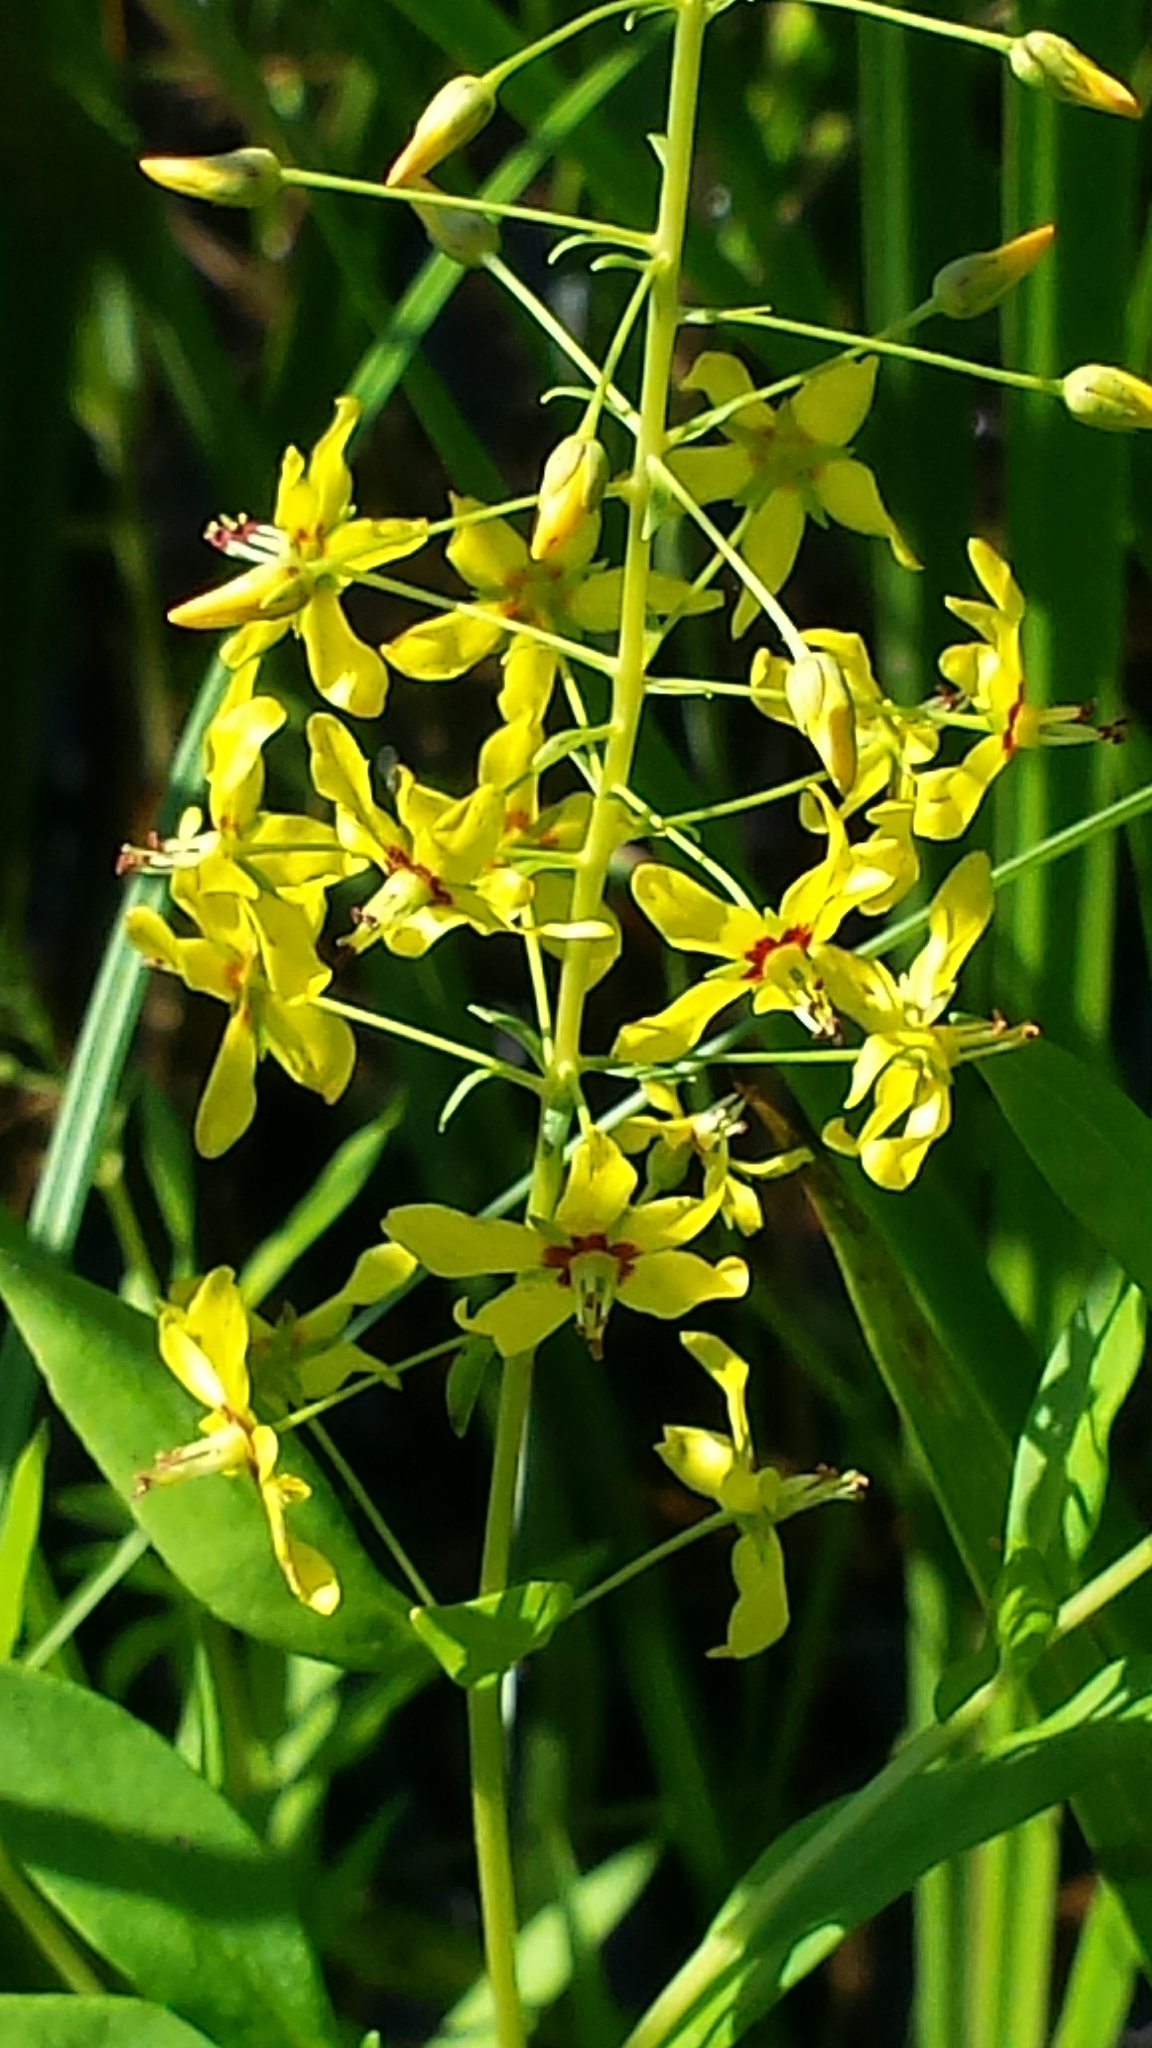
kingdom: Plantae
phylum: Tracheophyta
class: Magnoliopsida
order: Ericales
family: Primulaceae
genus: Lysimachia
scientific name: Lysimachia terrestris
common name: Lake loosestrife
